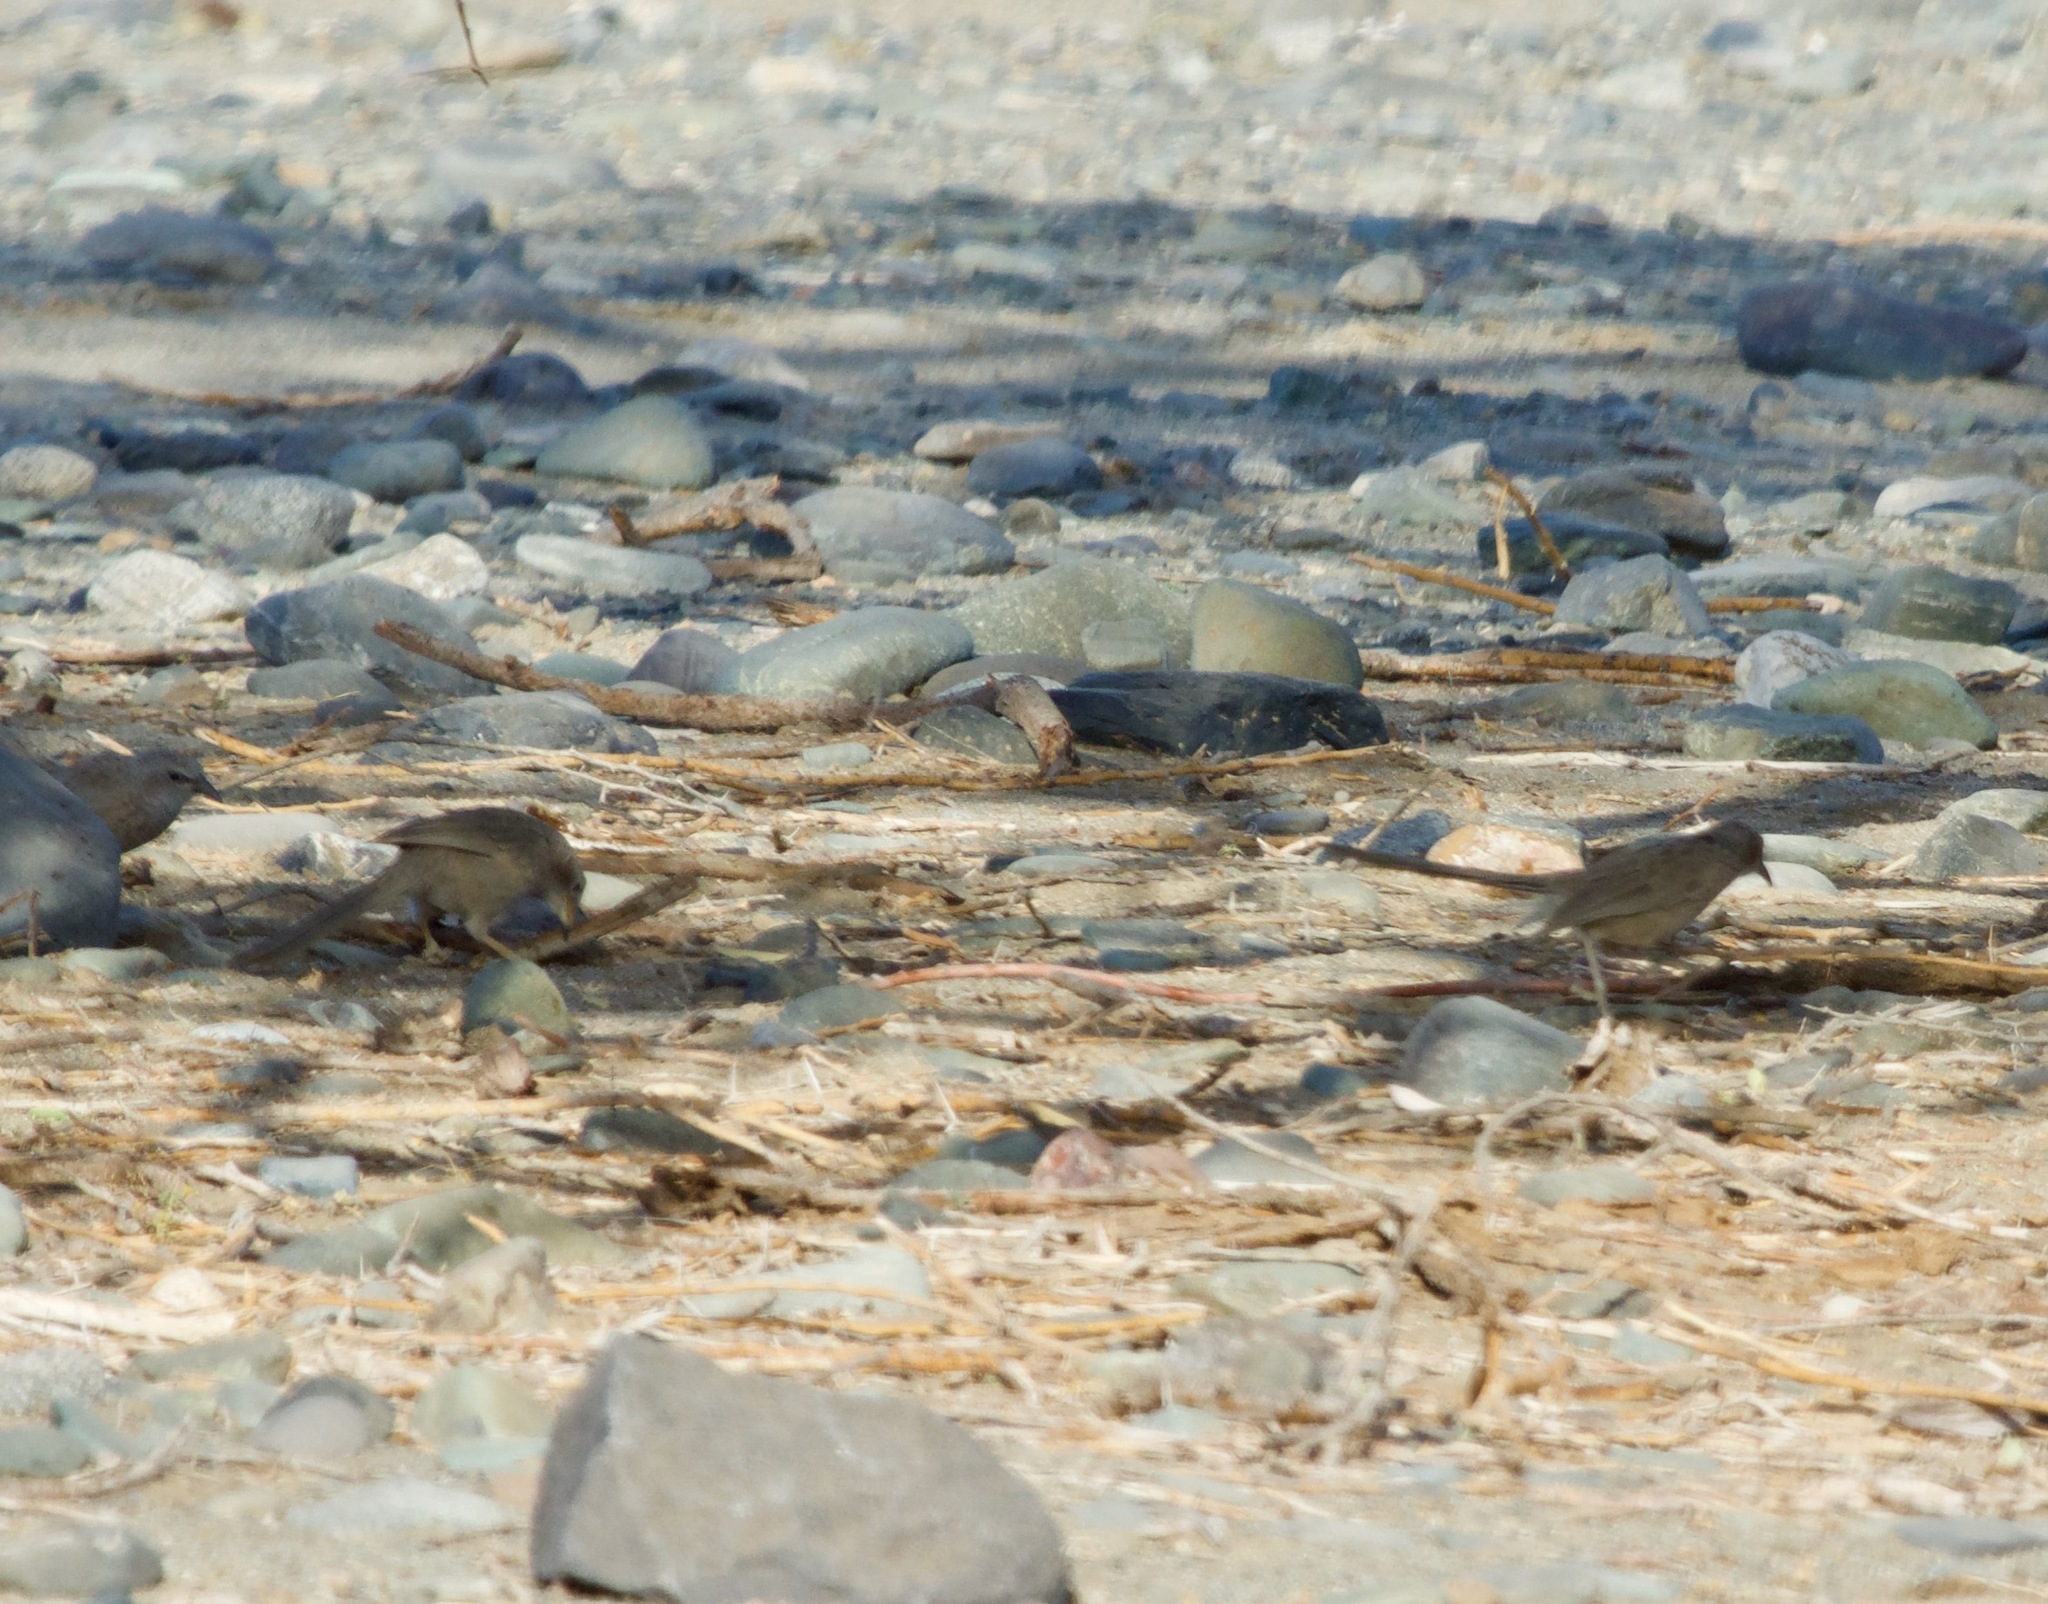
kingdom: Animalia
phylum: Chordata
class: Aves
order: Passeriformes
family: Leiothrichidae
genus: Turdoides
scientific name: Turdoides squamiceps
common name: Arabian babbler
